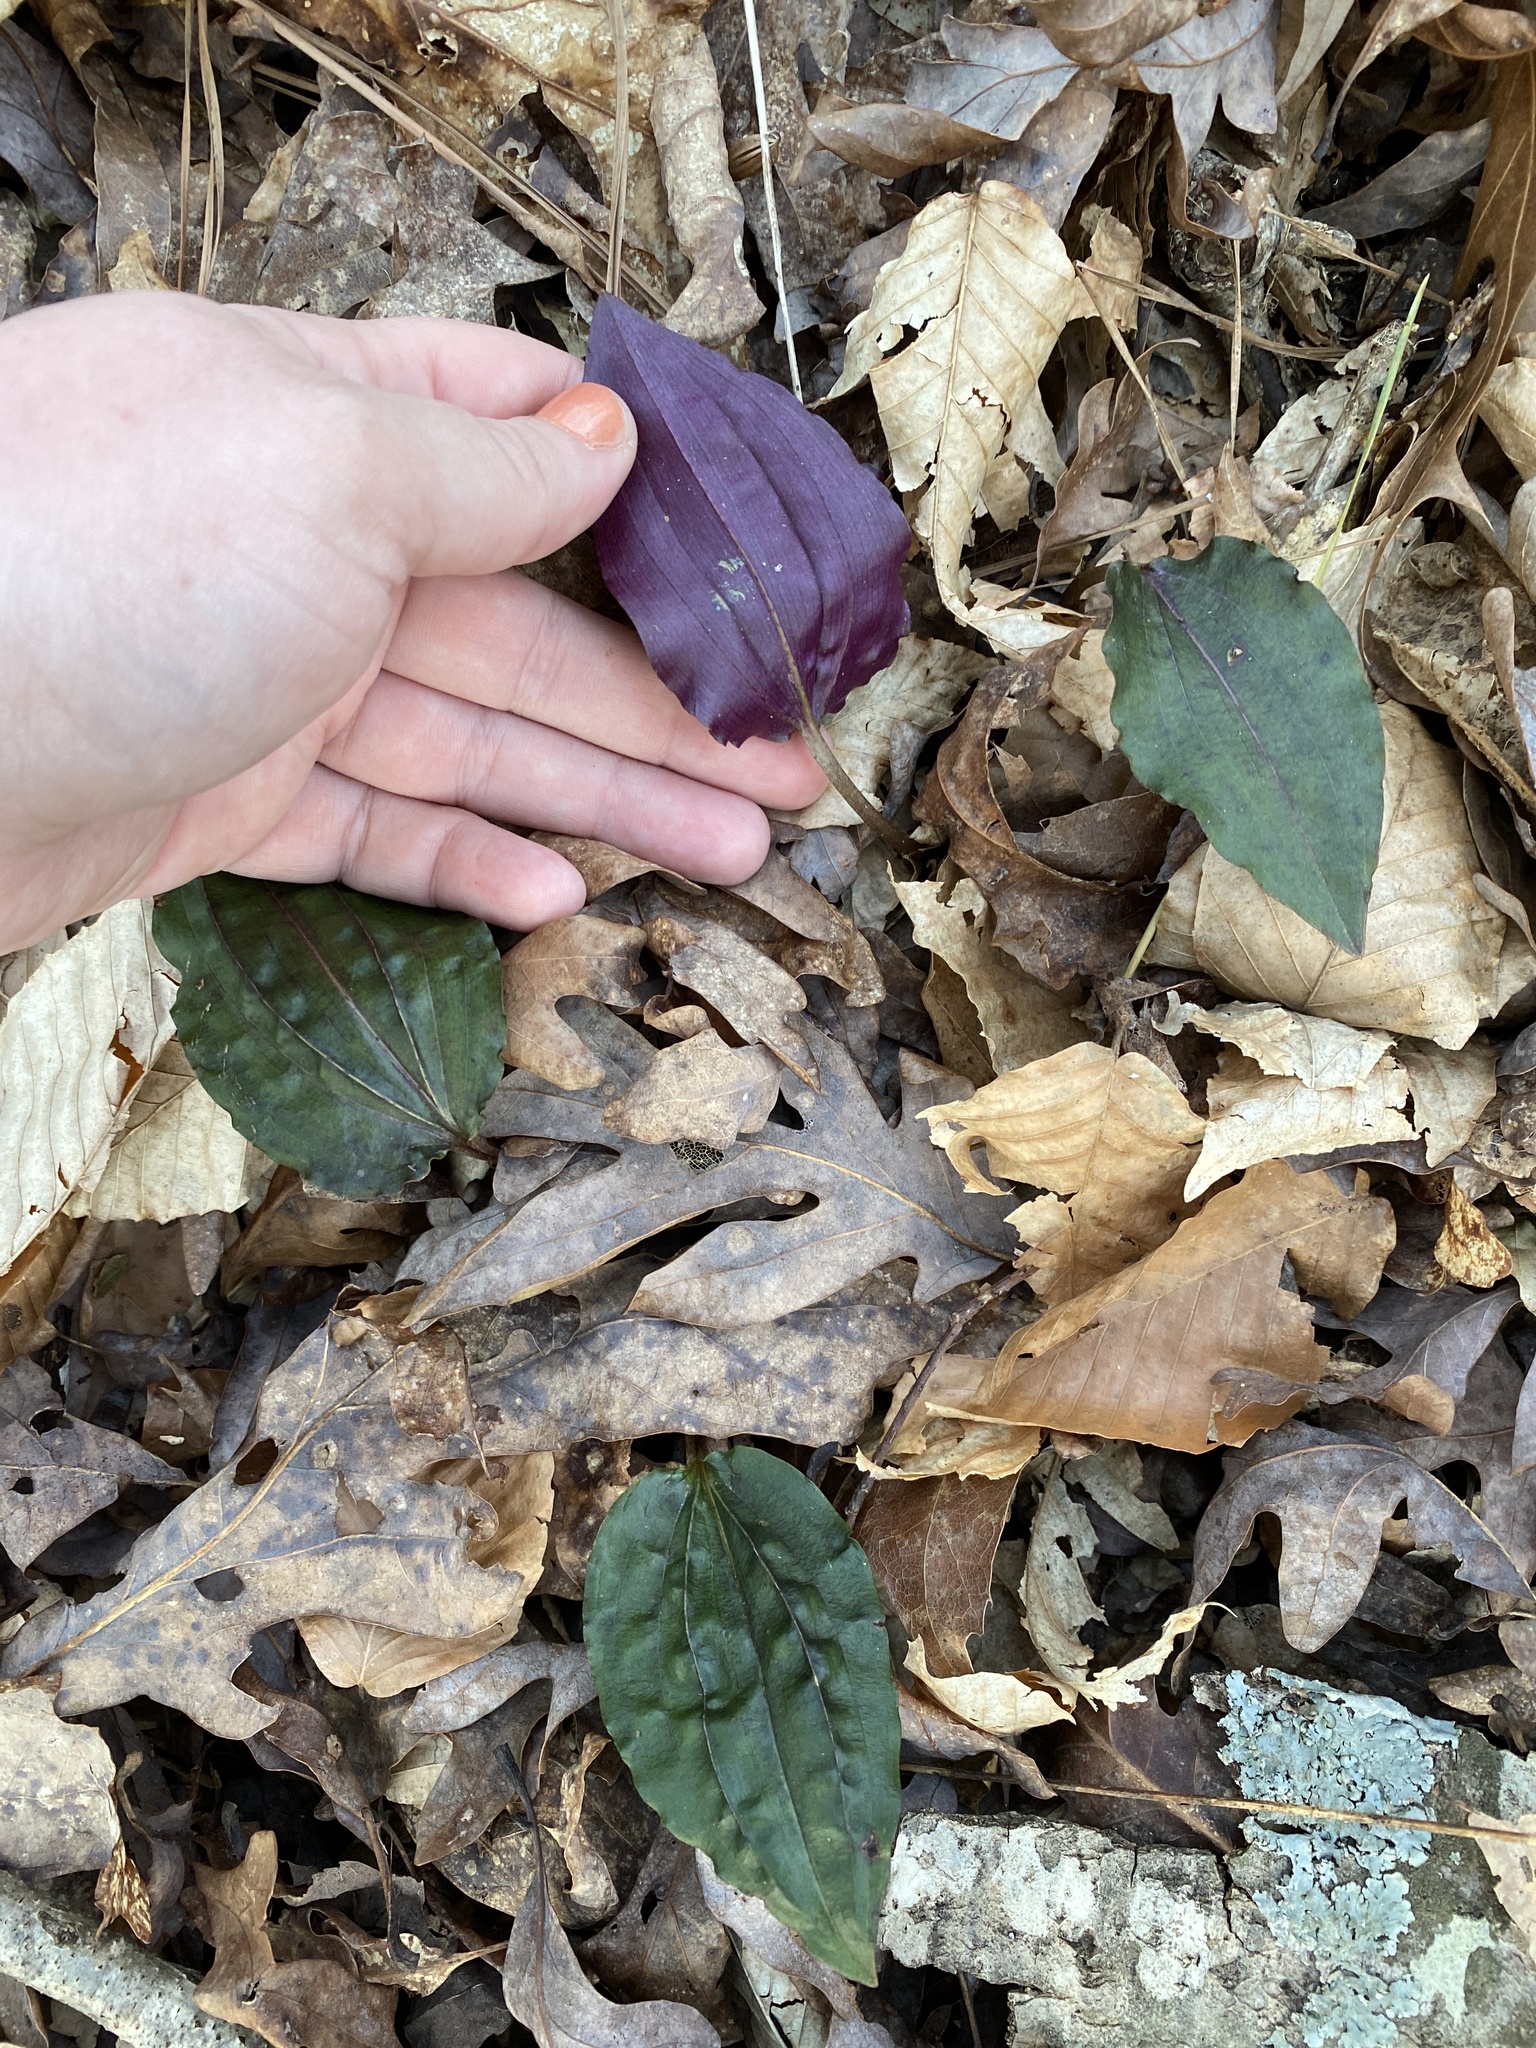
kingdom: Plantae
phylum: Tracheophyta
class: Liliopsida
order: Asparagales
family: Orchidaceae
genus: Tipularia
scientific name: Tipularia discolor
